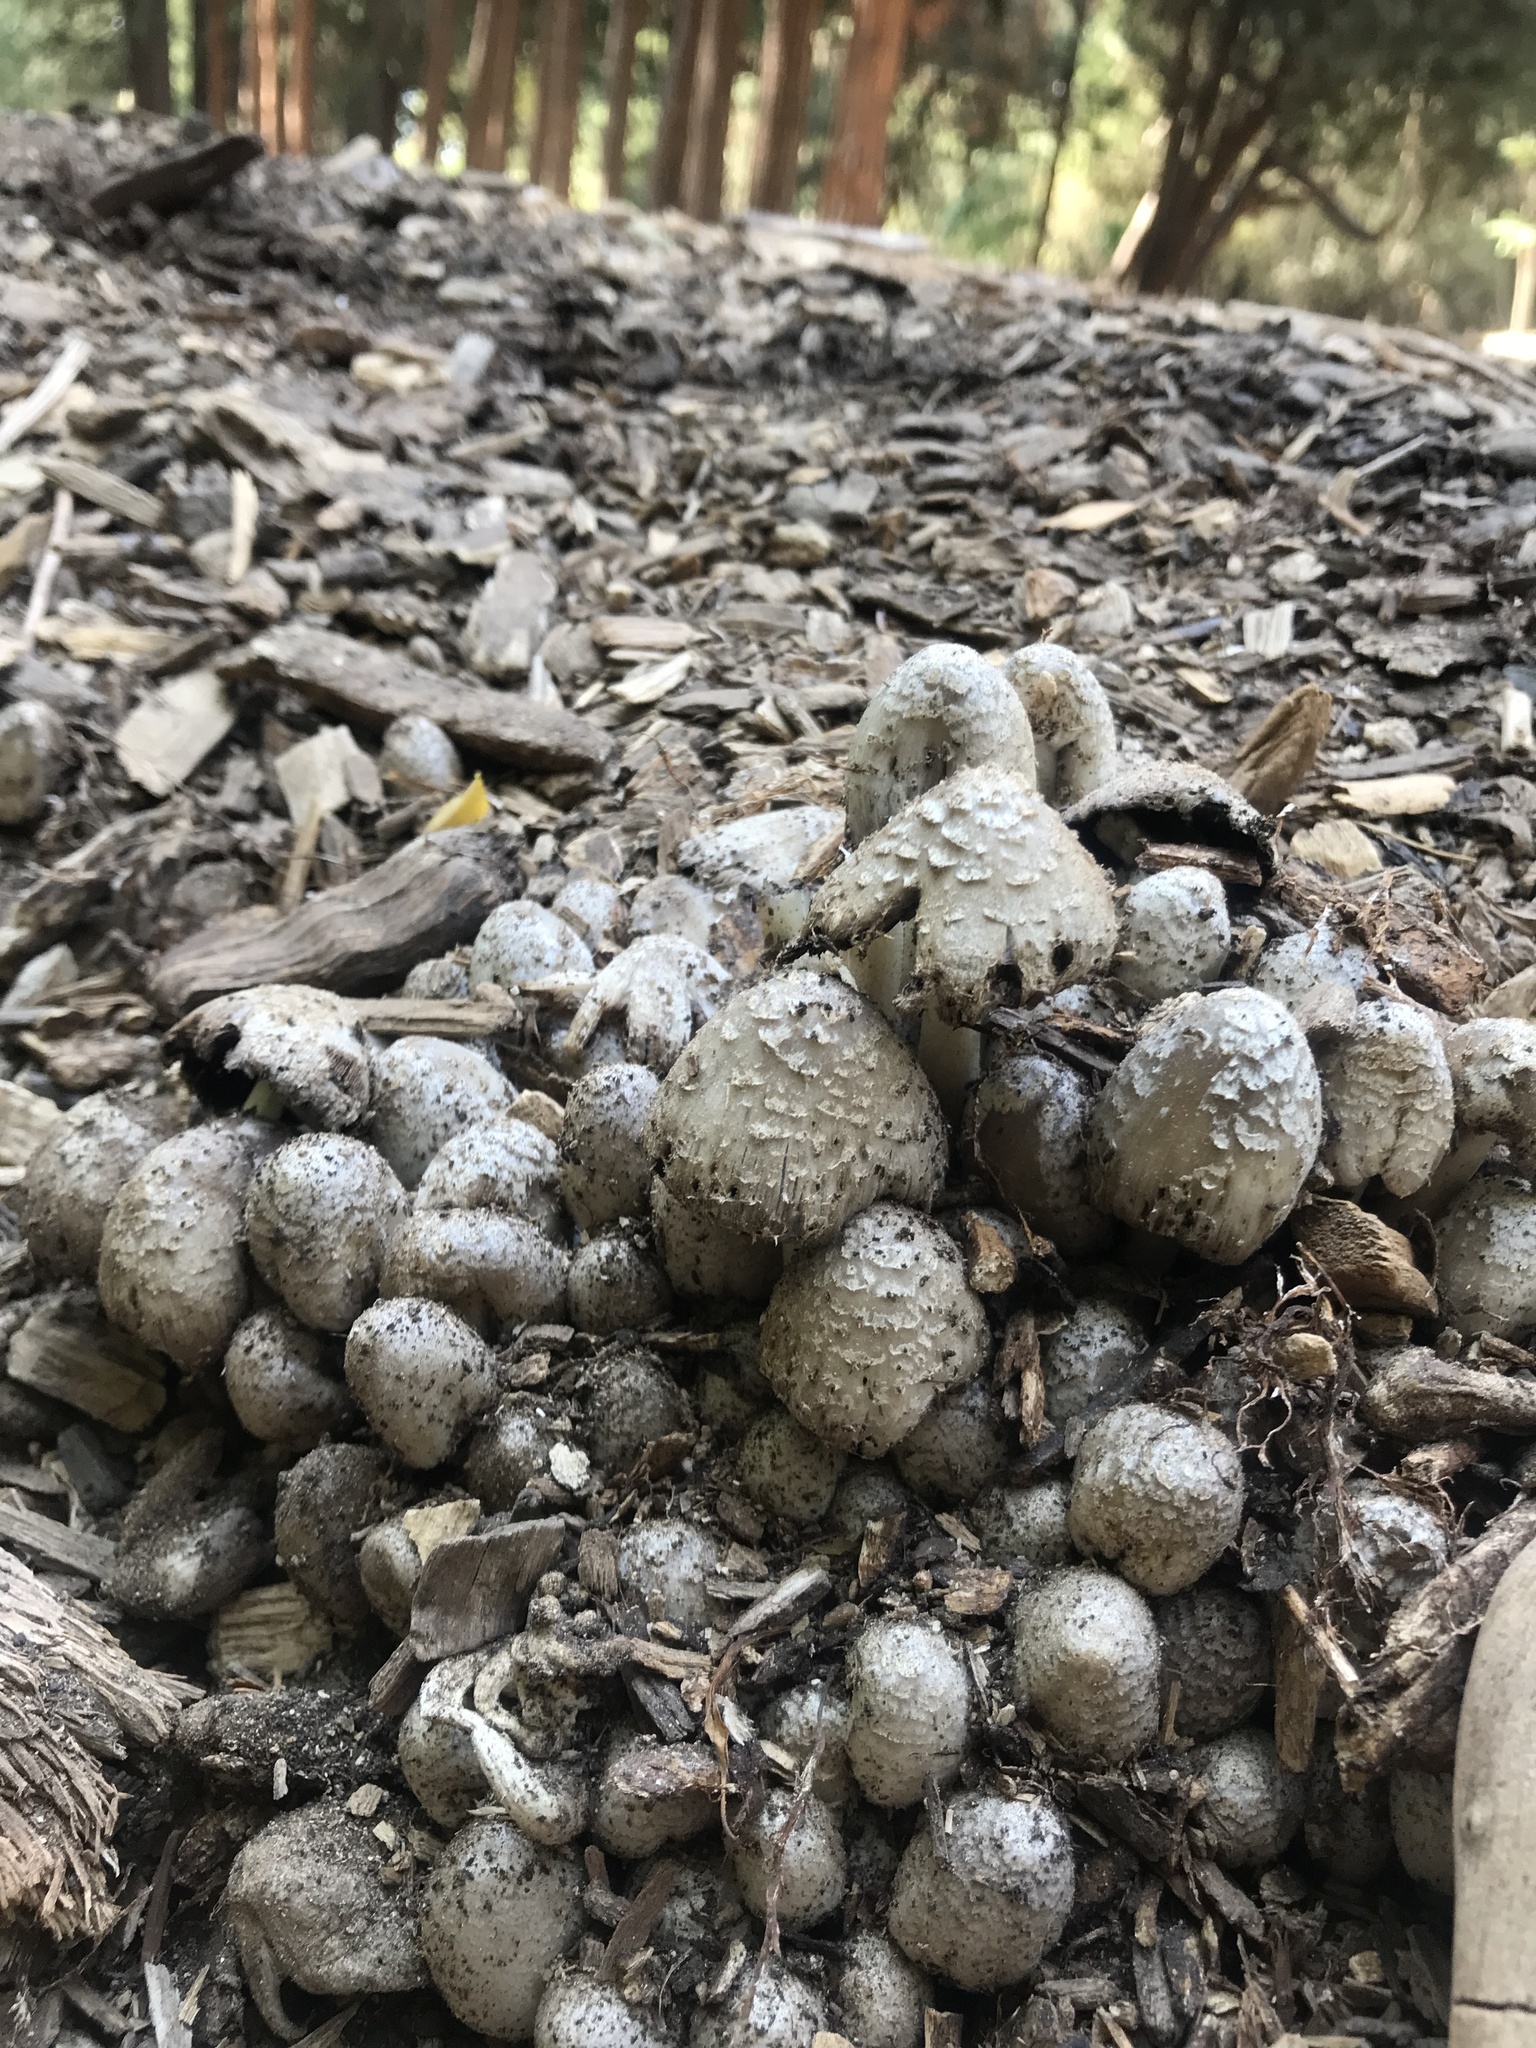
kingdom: Fungi
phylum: Basidiomycota
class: Agaricomycetes
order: Agaricales
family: Psathyrellaceae
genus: Coprinellus
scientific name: Coprinellus flocculosus
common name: Flocculose inkcap
